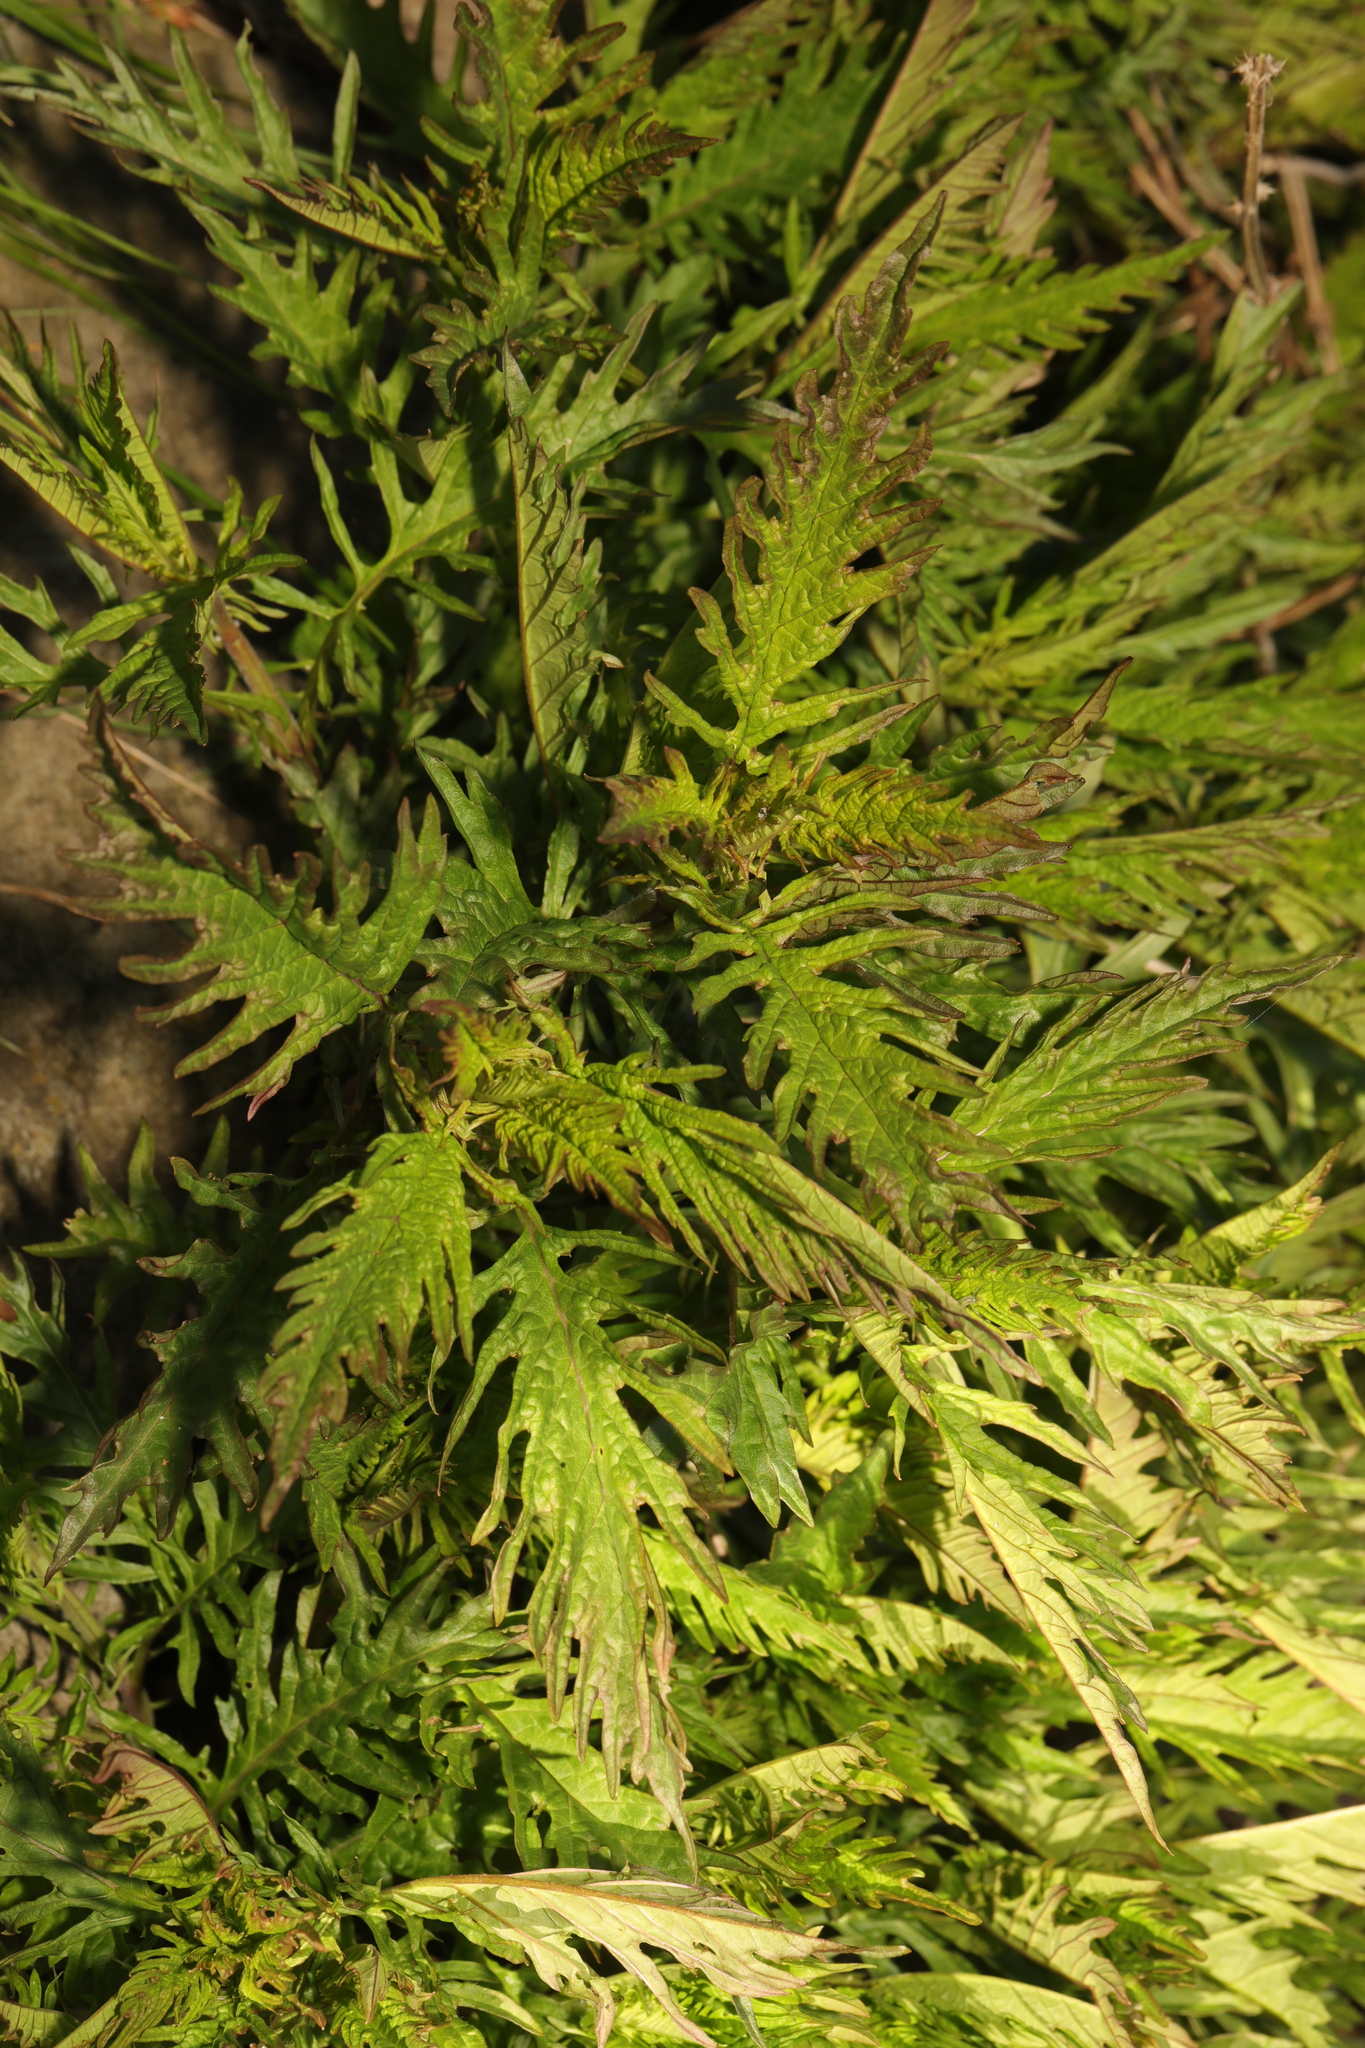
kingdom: Plantae
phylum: Tracheophyta
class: Magnoliopsida
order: Lamiales
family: Lamiaceae
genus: Lycopus
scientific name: Lycopus europaeus
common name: European bugleweed
